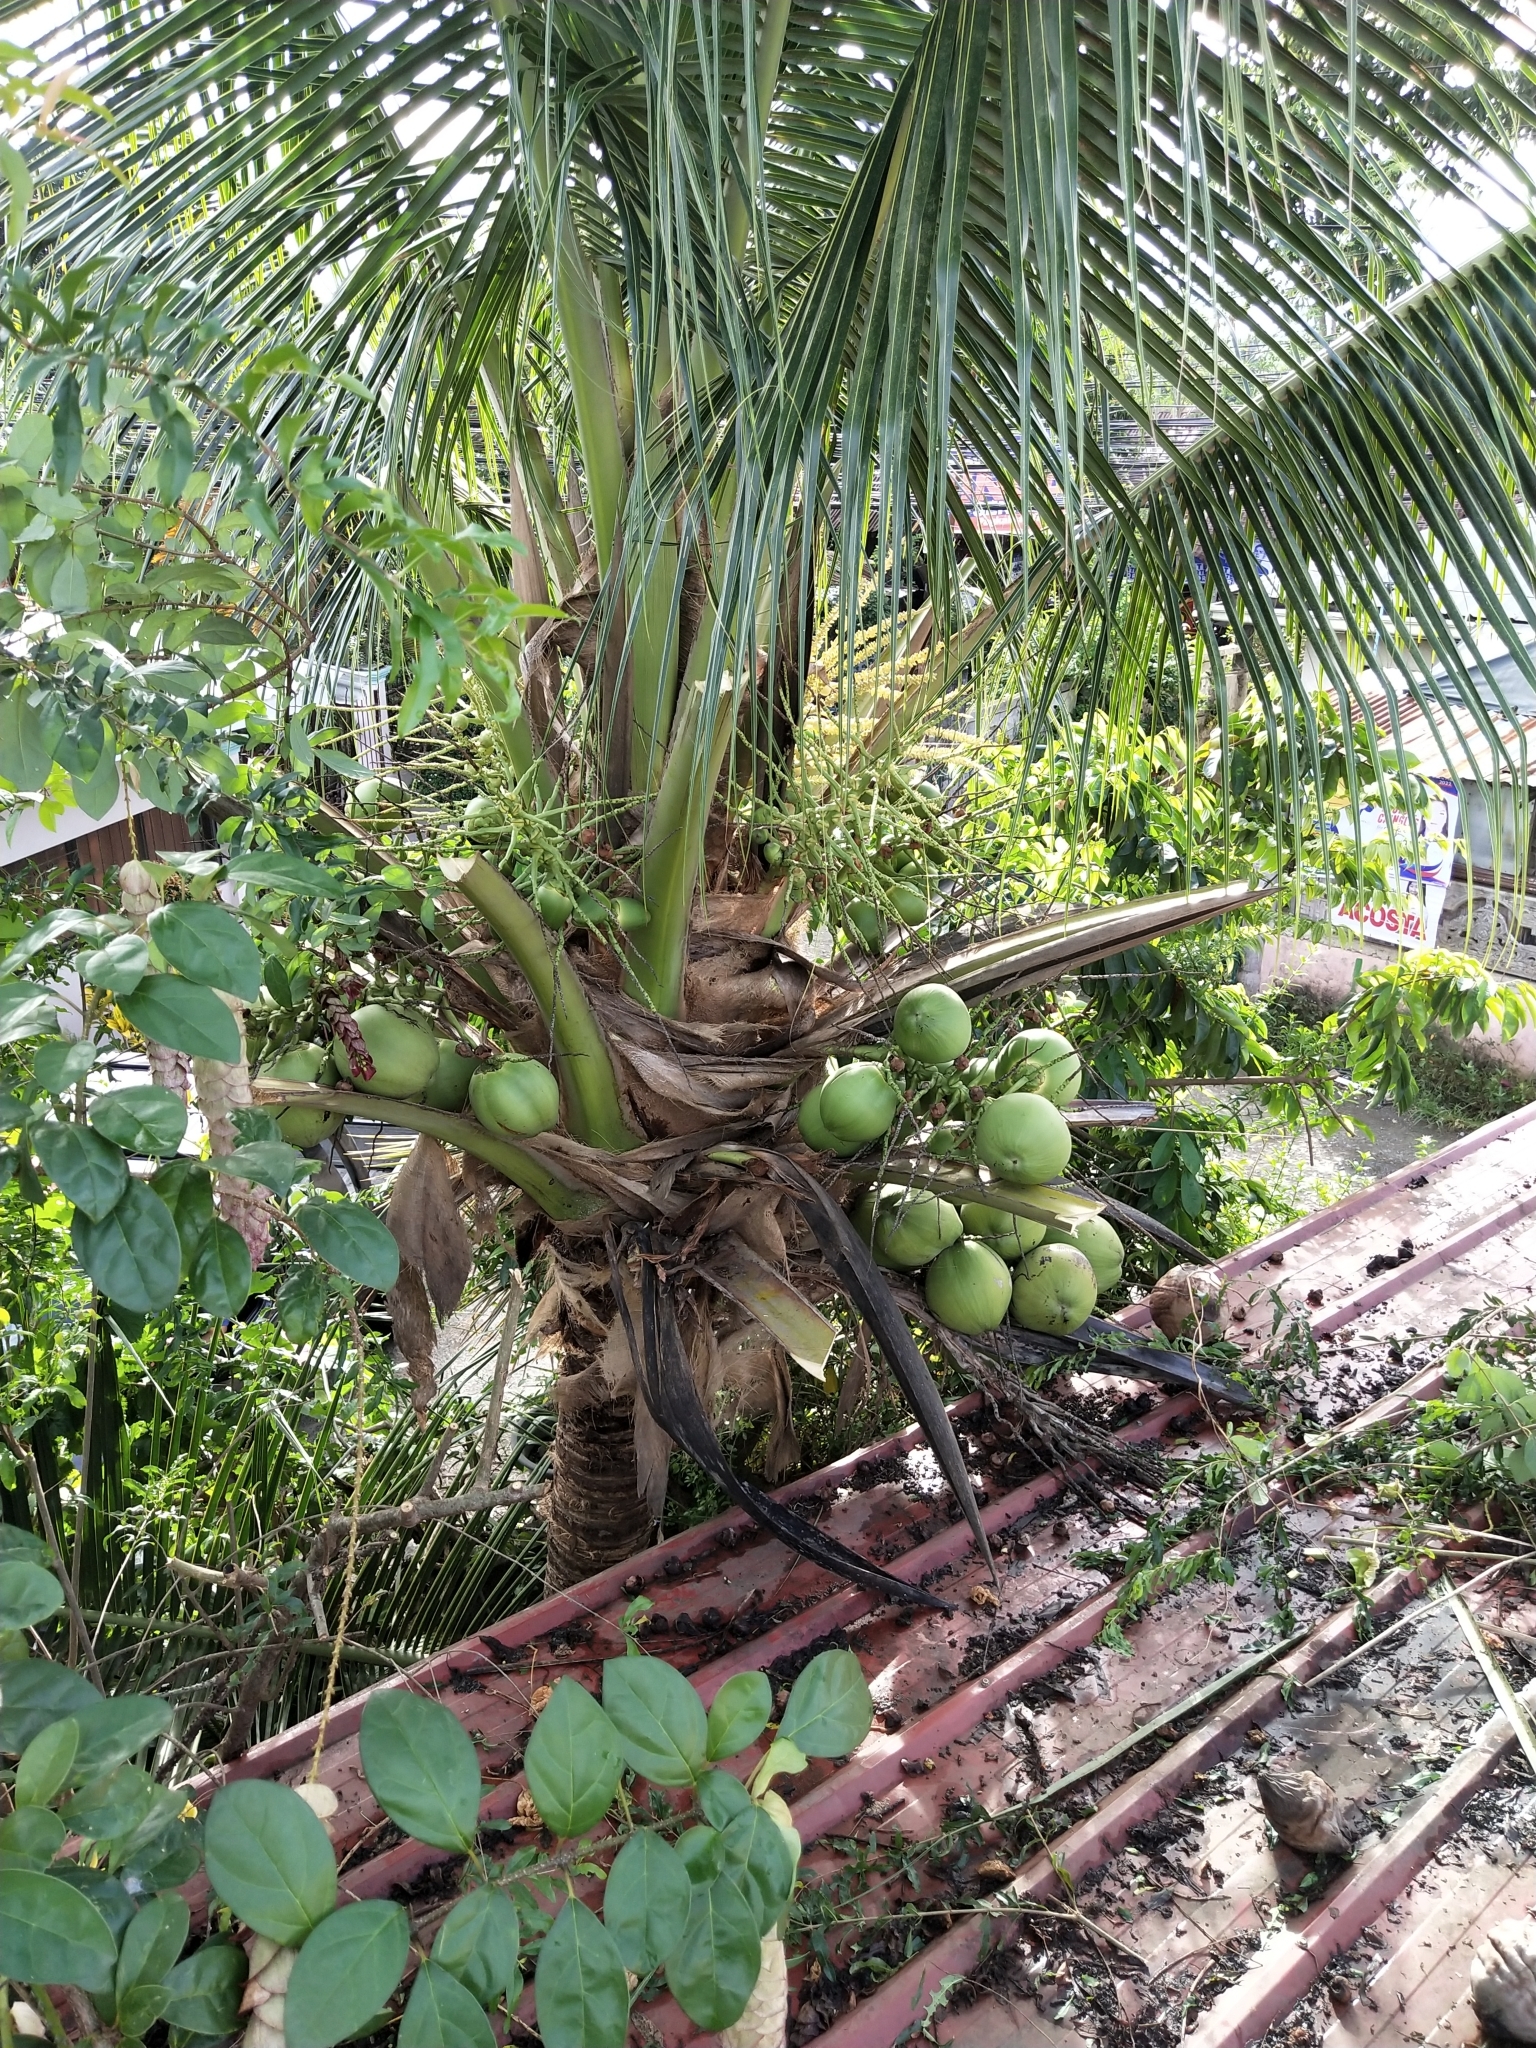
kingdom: Plantae
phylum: Tracheophyta
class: Liliopsida
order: Arecales
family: Arecaceae
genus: Cocos
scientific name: Cocos nucifera
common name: Coconut palm
